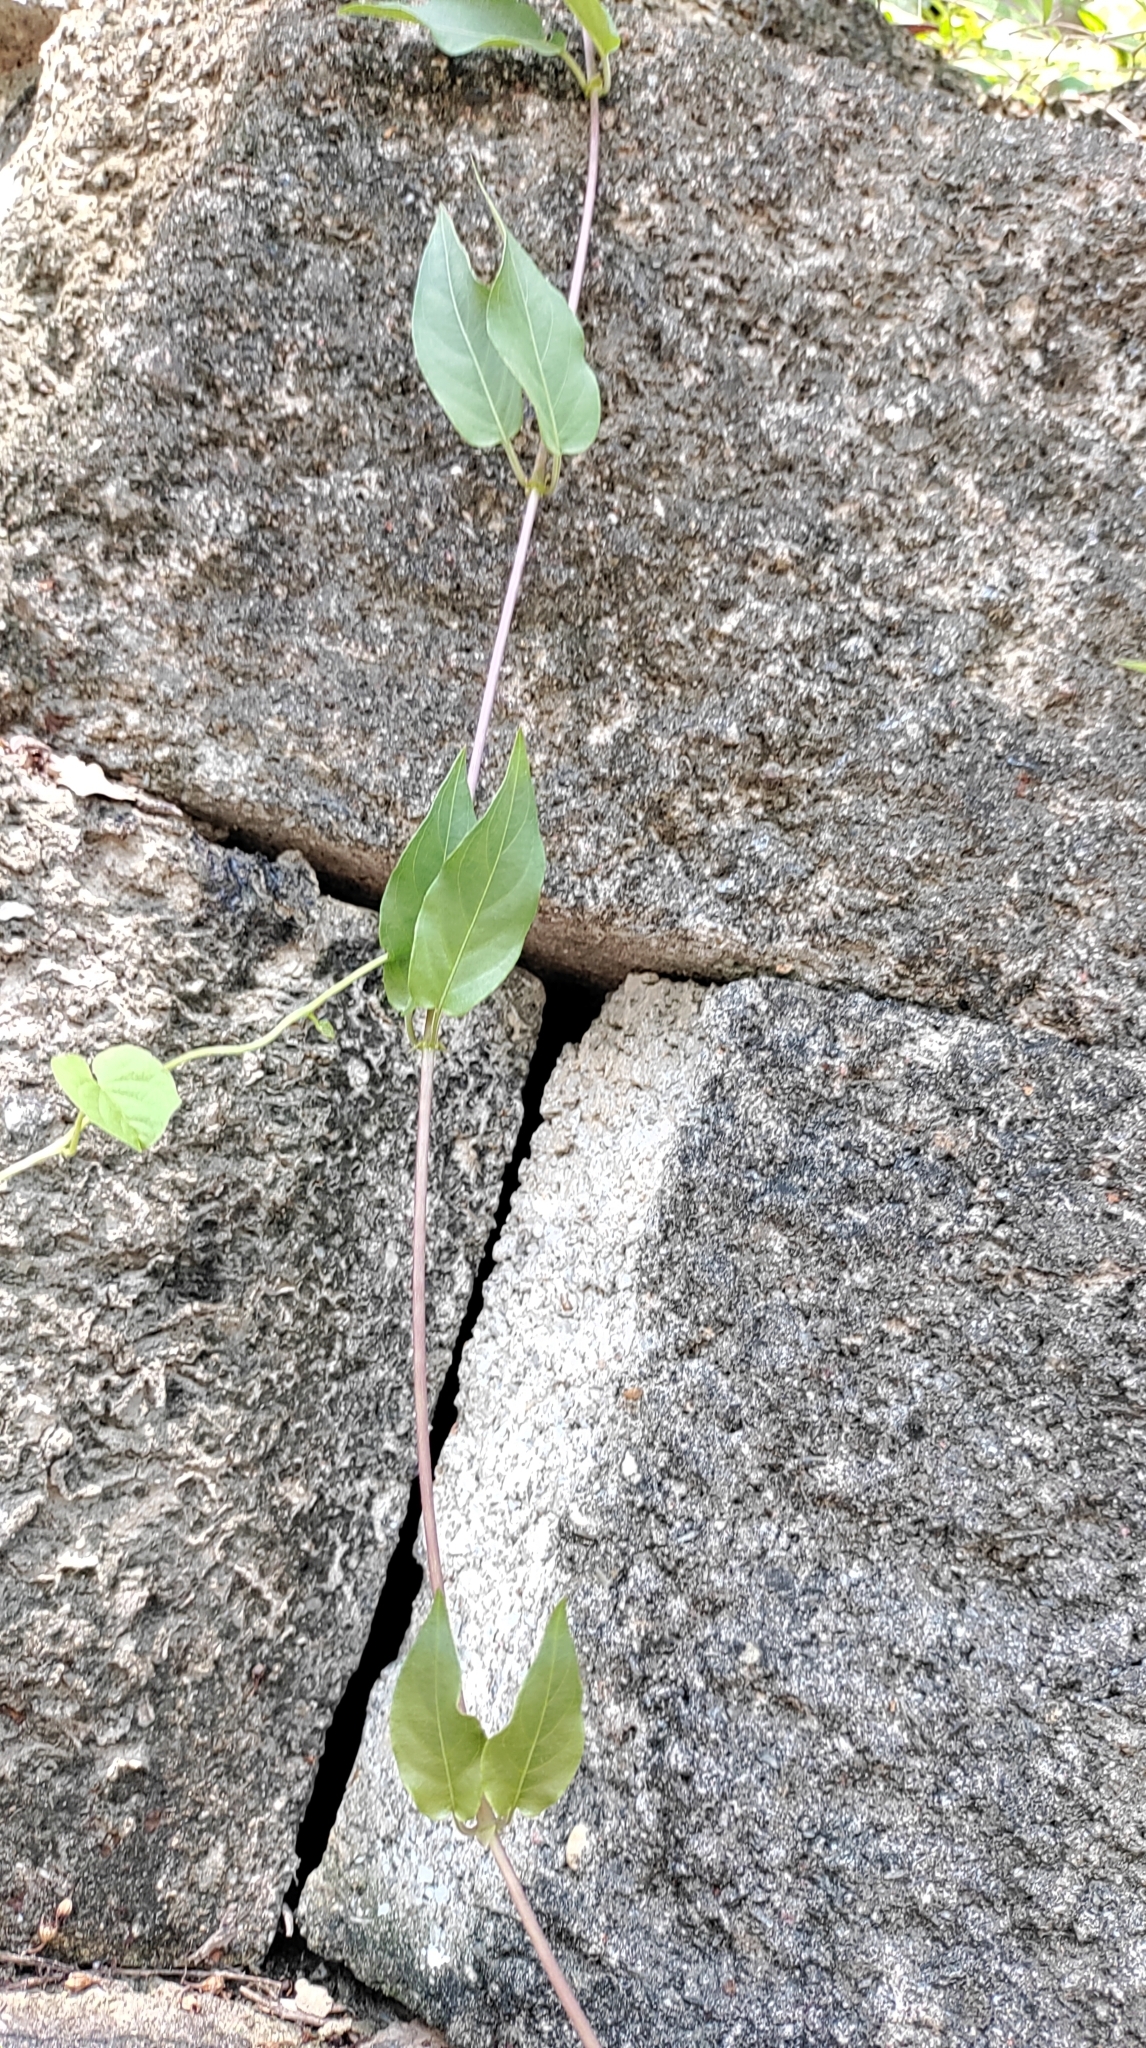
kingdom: Plantae
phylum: Tracheophyta
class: Magnoliopsida
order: Gentianales
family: Rubiaceae
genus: Paederia
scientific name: Paederia foetida
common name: Stinkvine
